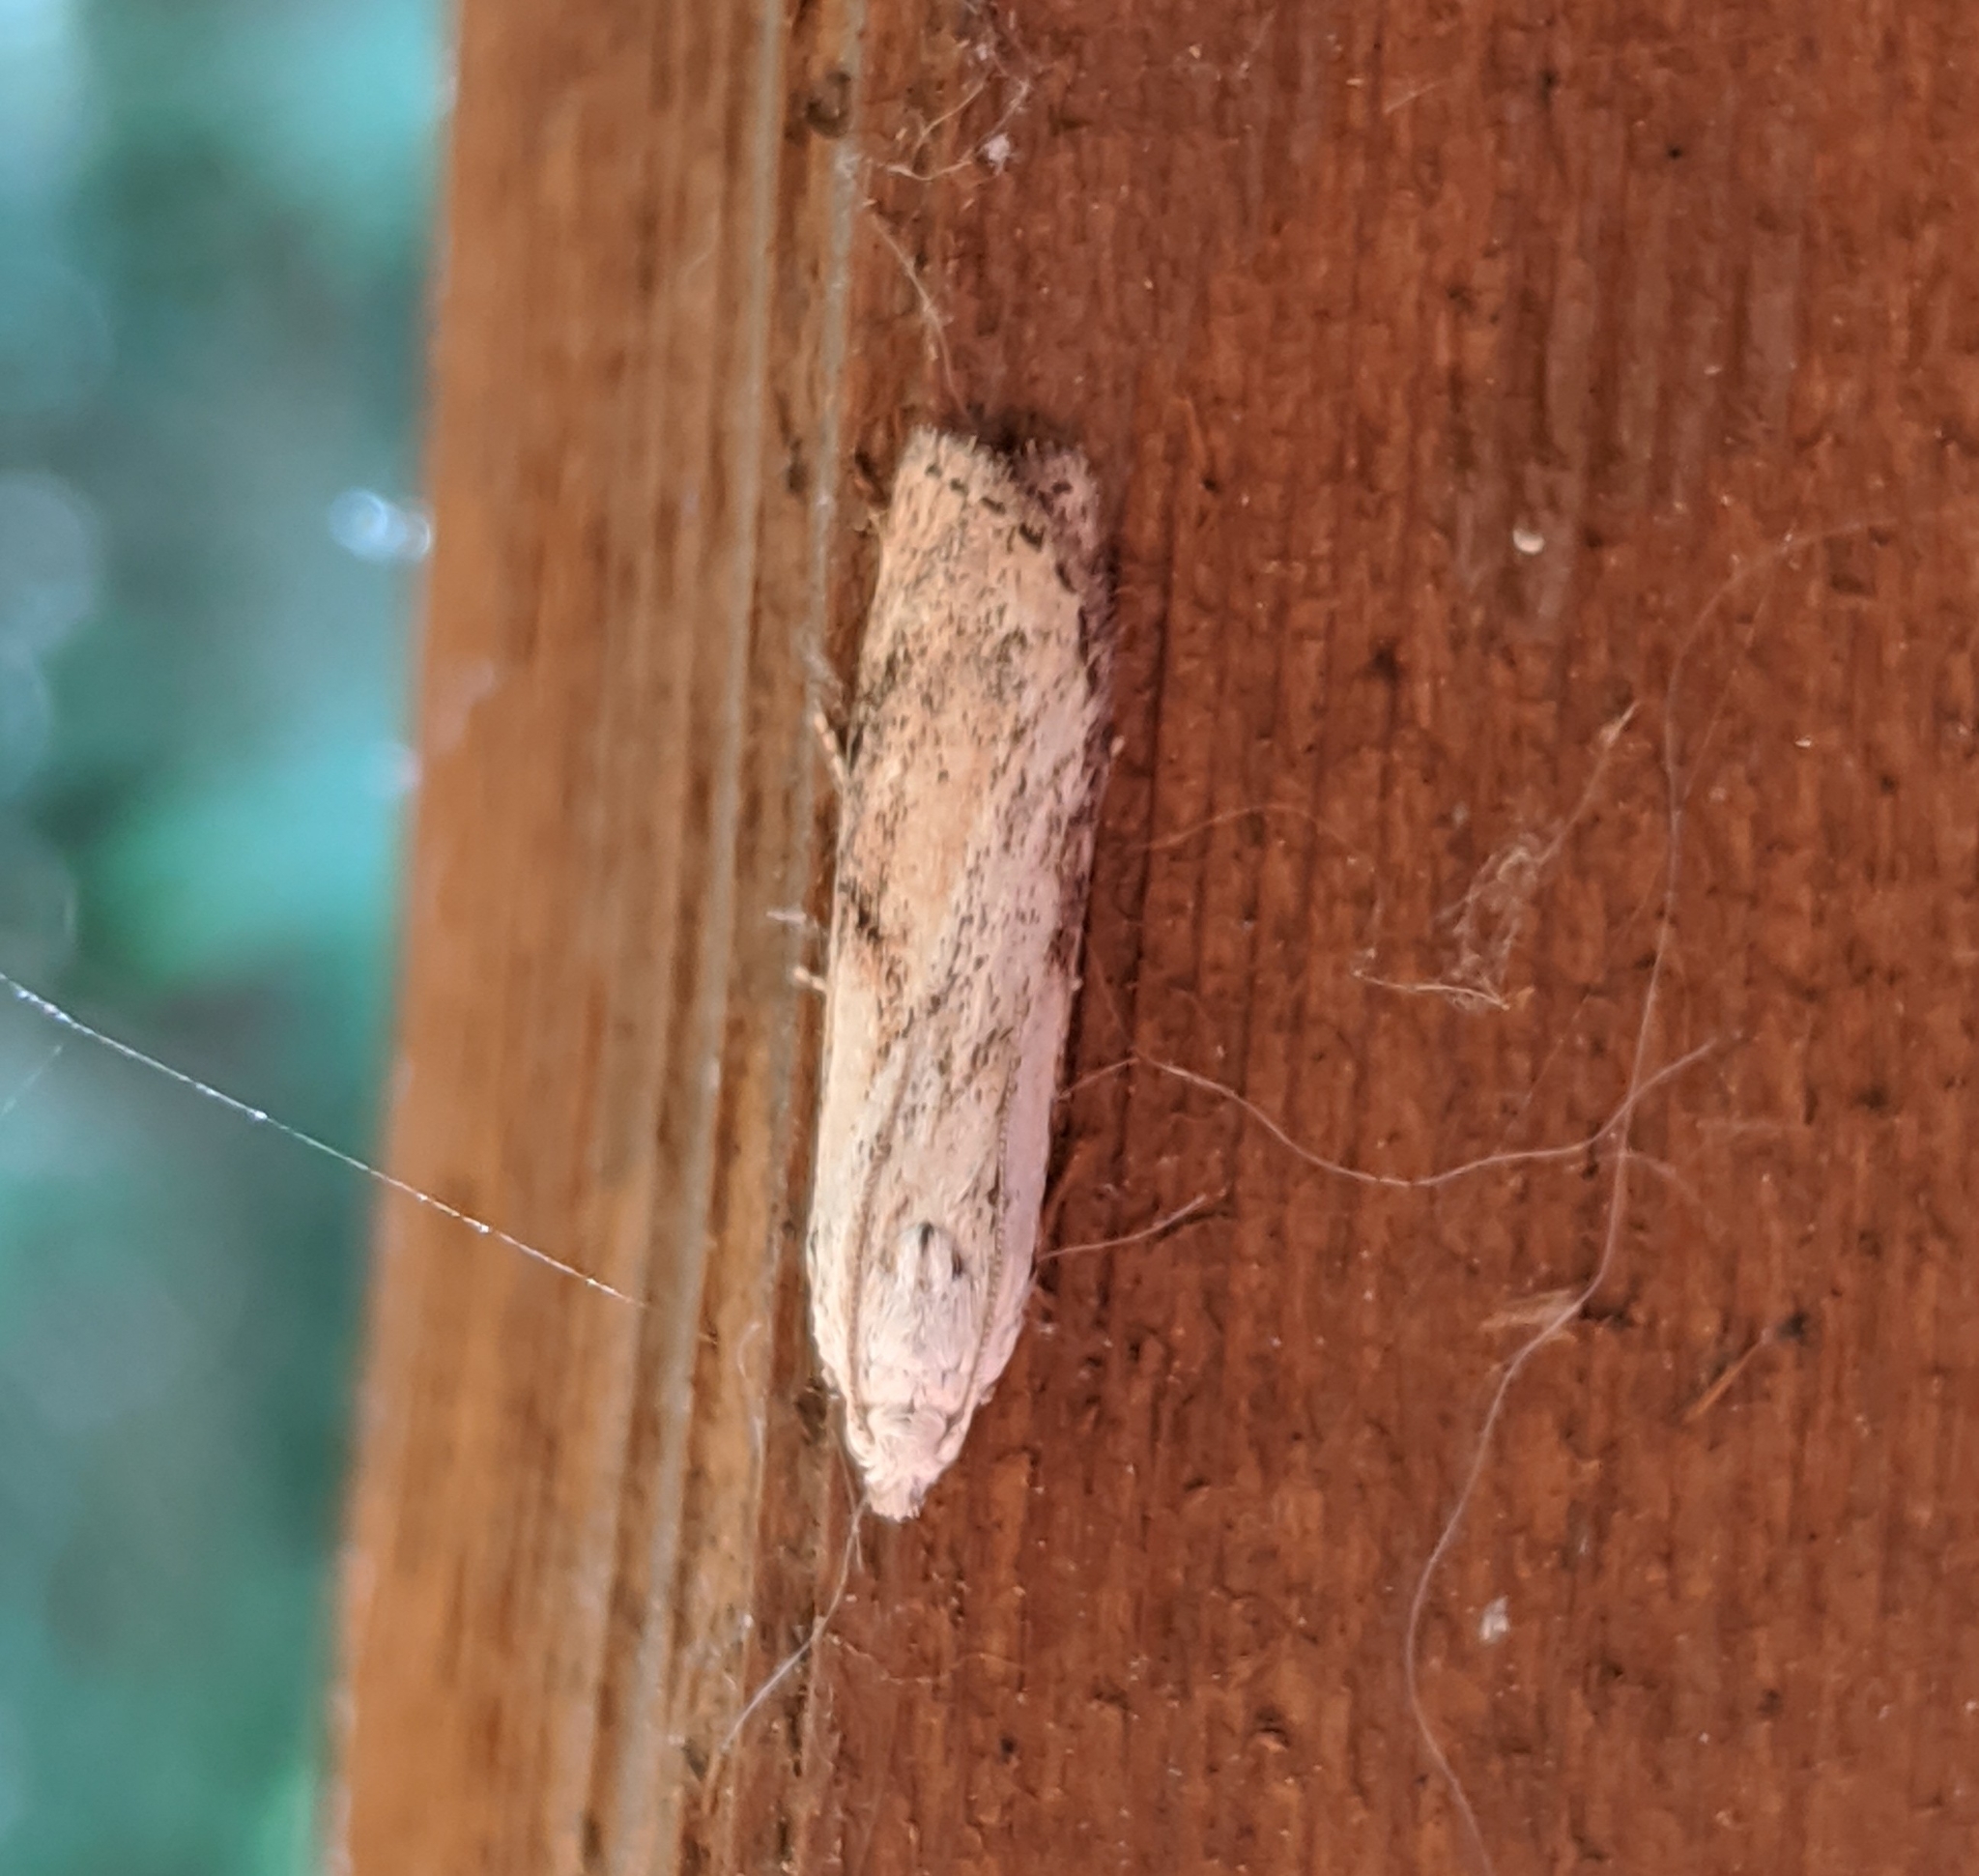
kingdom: Animalia
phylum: Arthropoda
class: Insecta
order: Lepidoptera
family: Pyralidae
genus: Aphomia
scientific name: Aphomia sociella
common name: Bee moth
